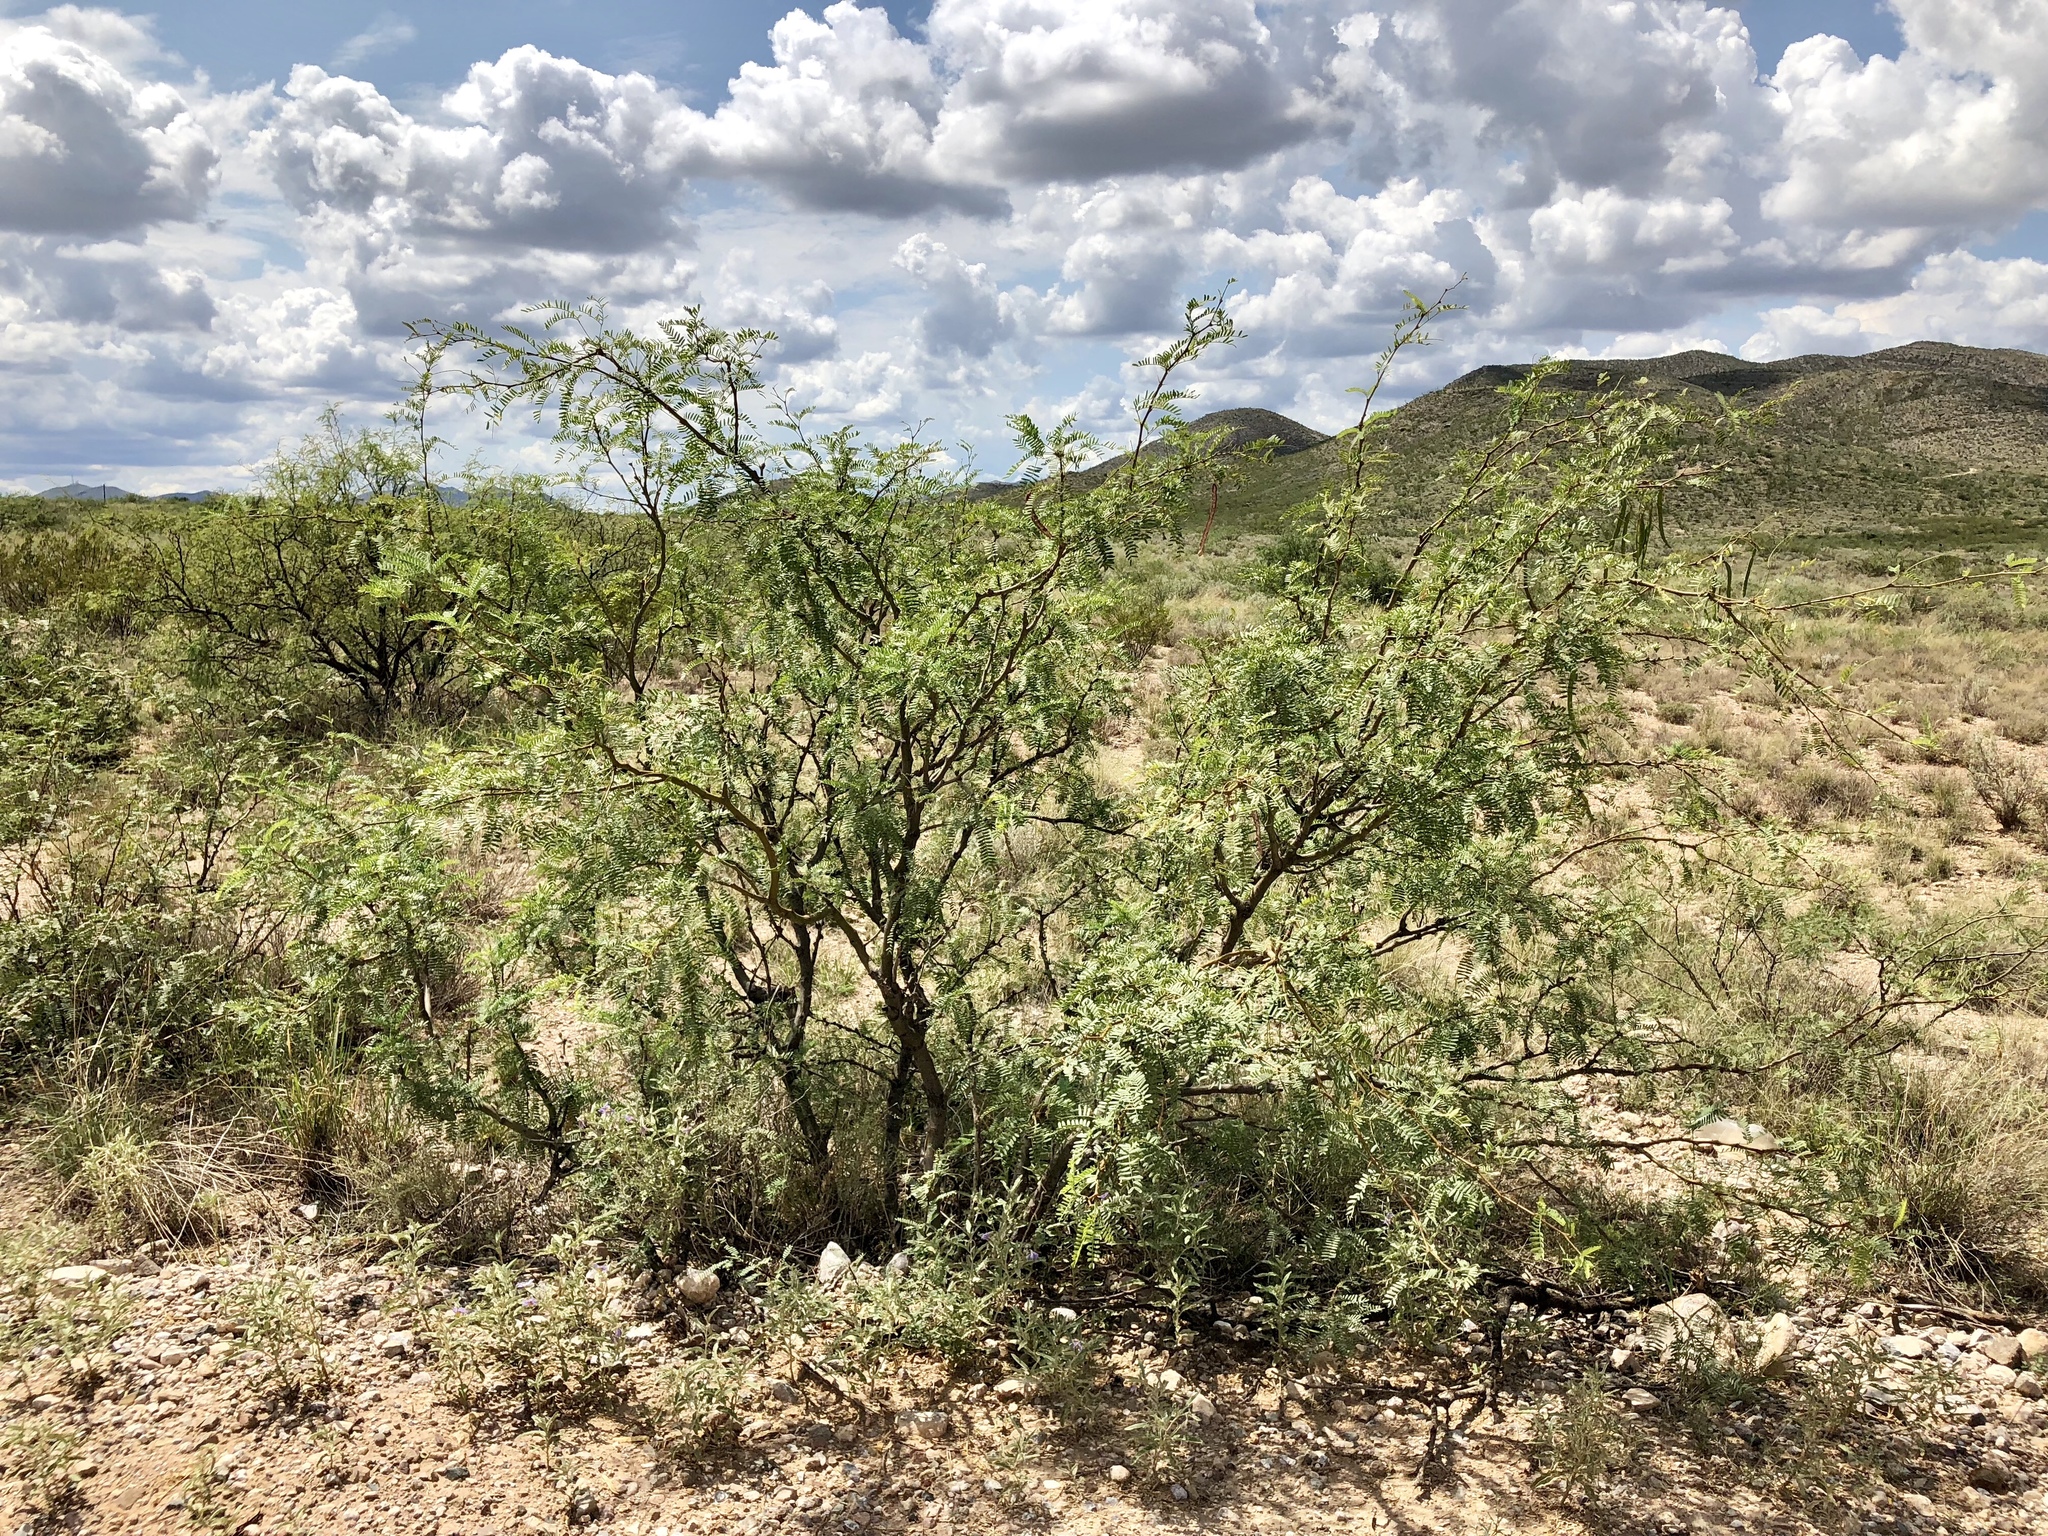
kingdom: Plantae
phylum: Tracheophyta
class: Magnoliopsida
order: Fabales
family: Fabaceae
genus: Prosopis
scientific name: Prosopis glandulosa
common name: Honey mesquite
